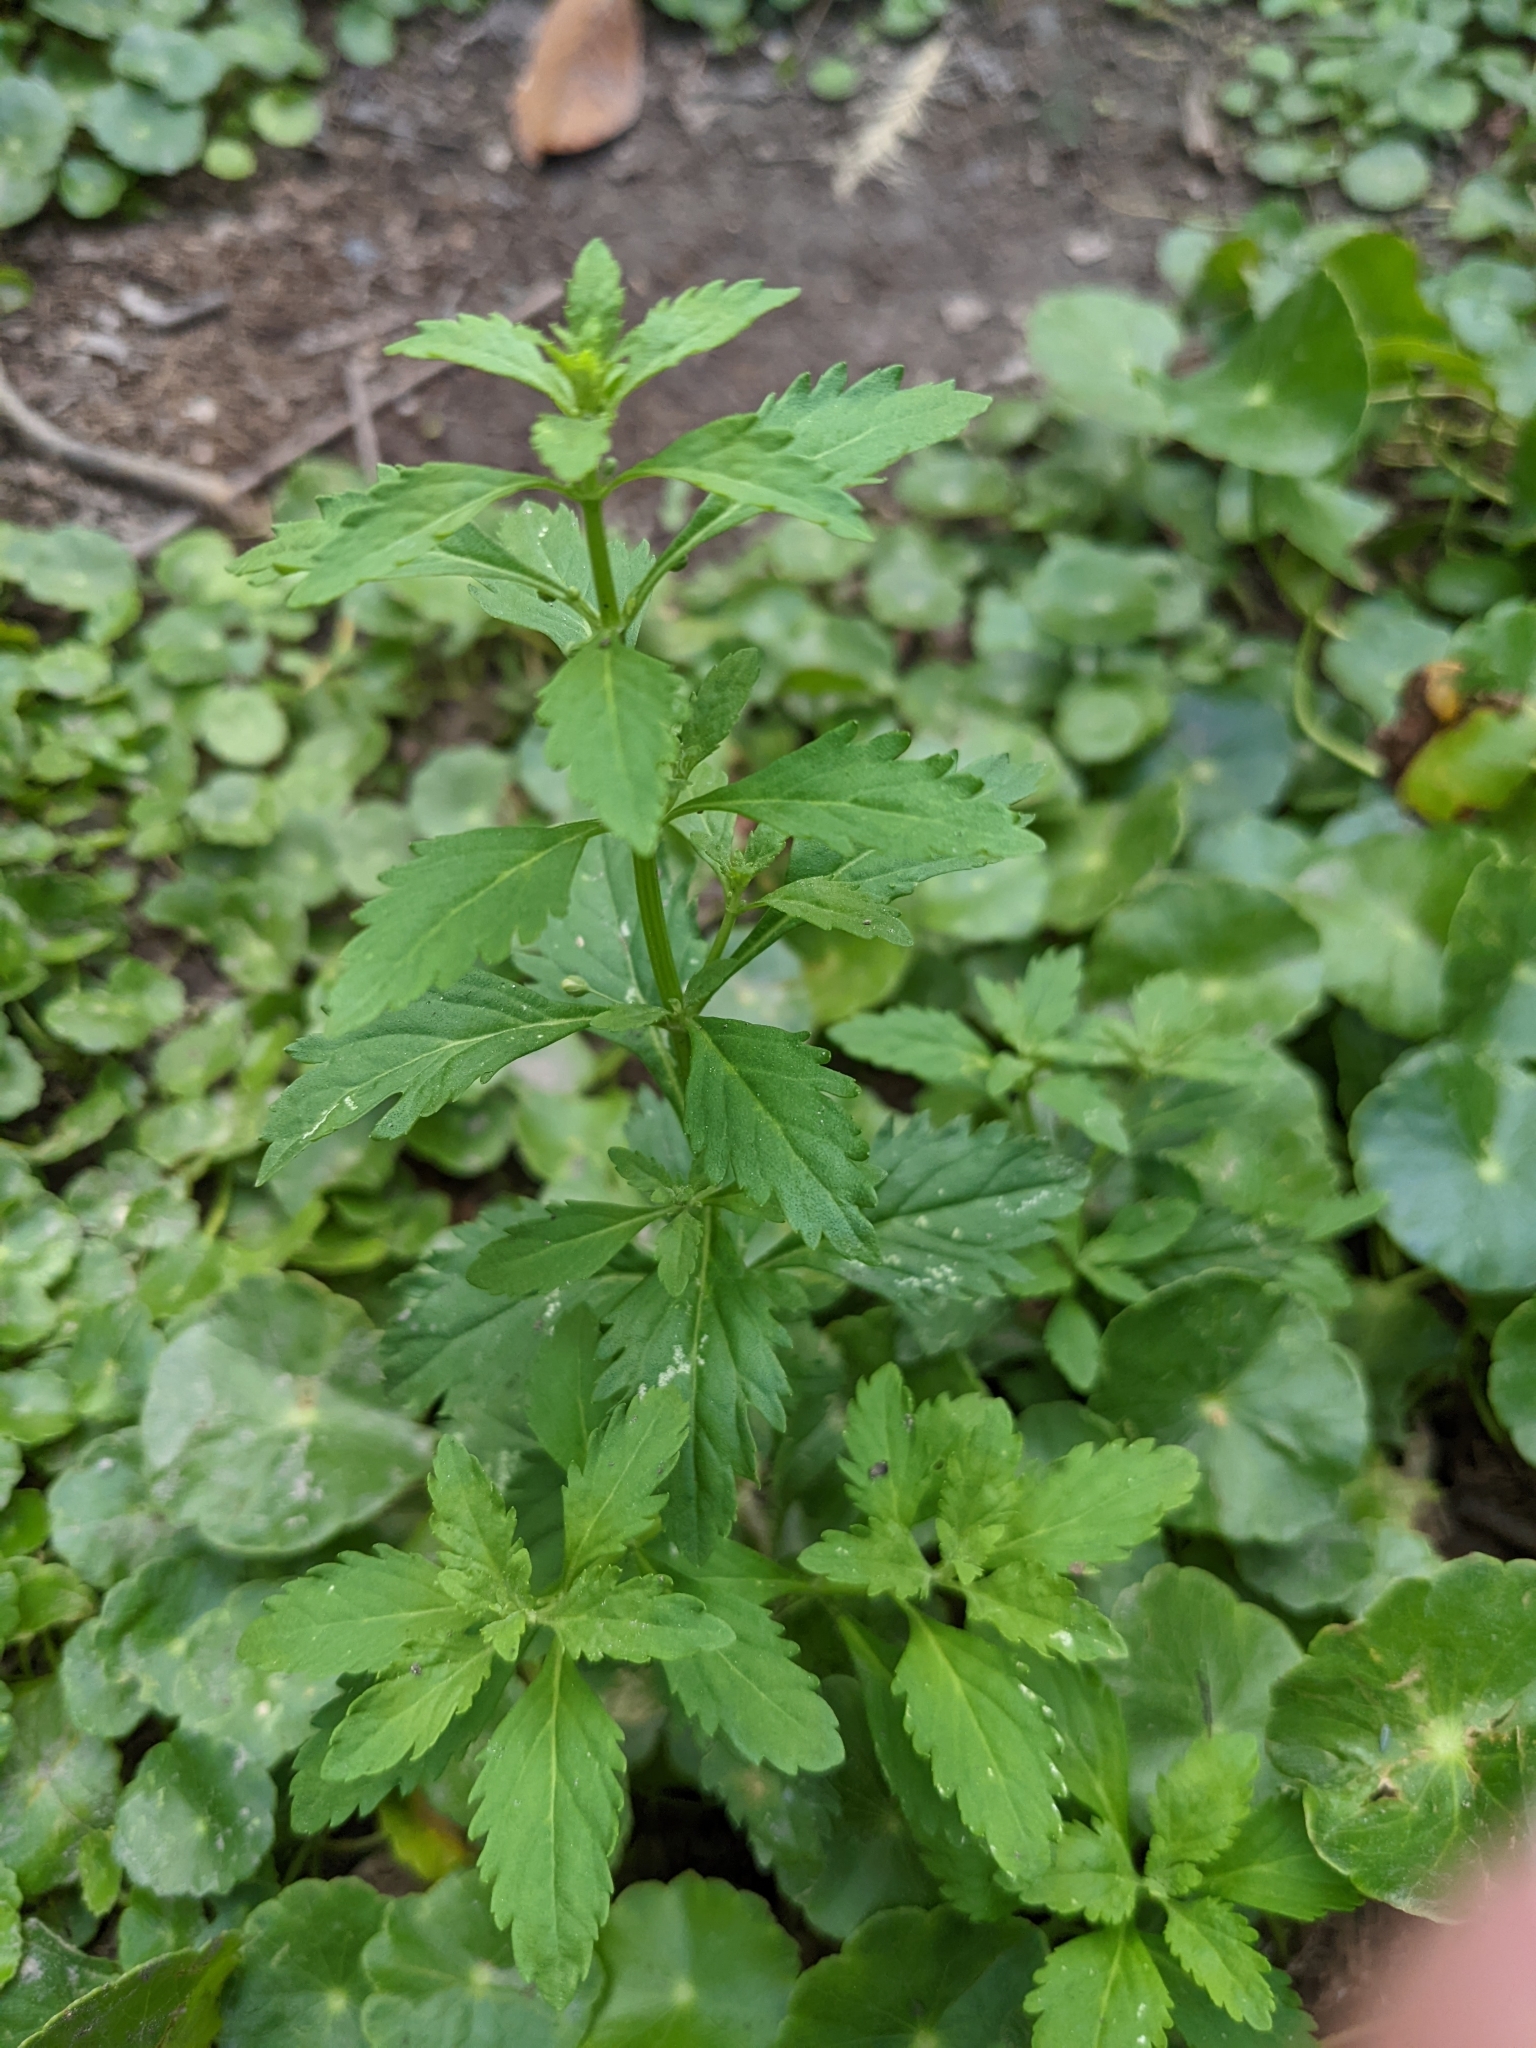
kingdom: Plantae
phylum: Tracheophyta
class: Magnoliopsida
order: Lamiales
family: Plantaginaceae
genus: Scoparia
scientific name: Scoparia dulcis
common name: Scoparia-weed
